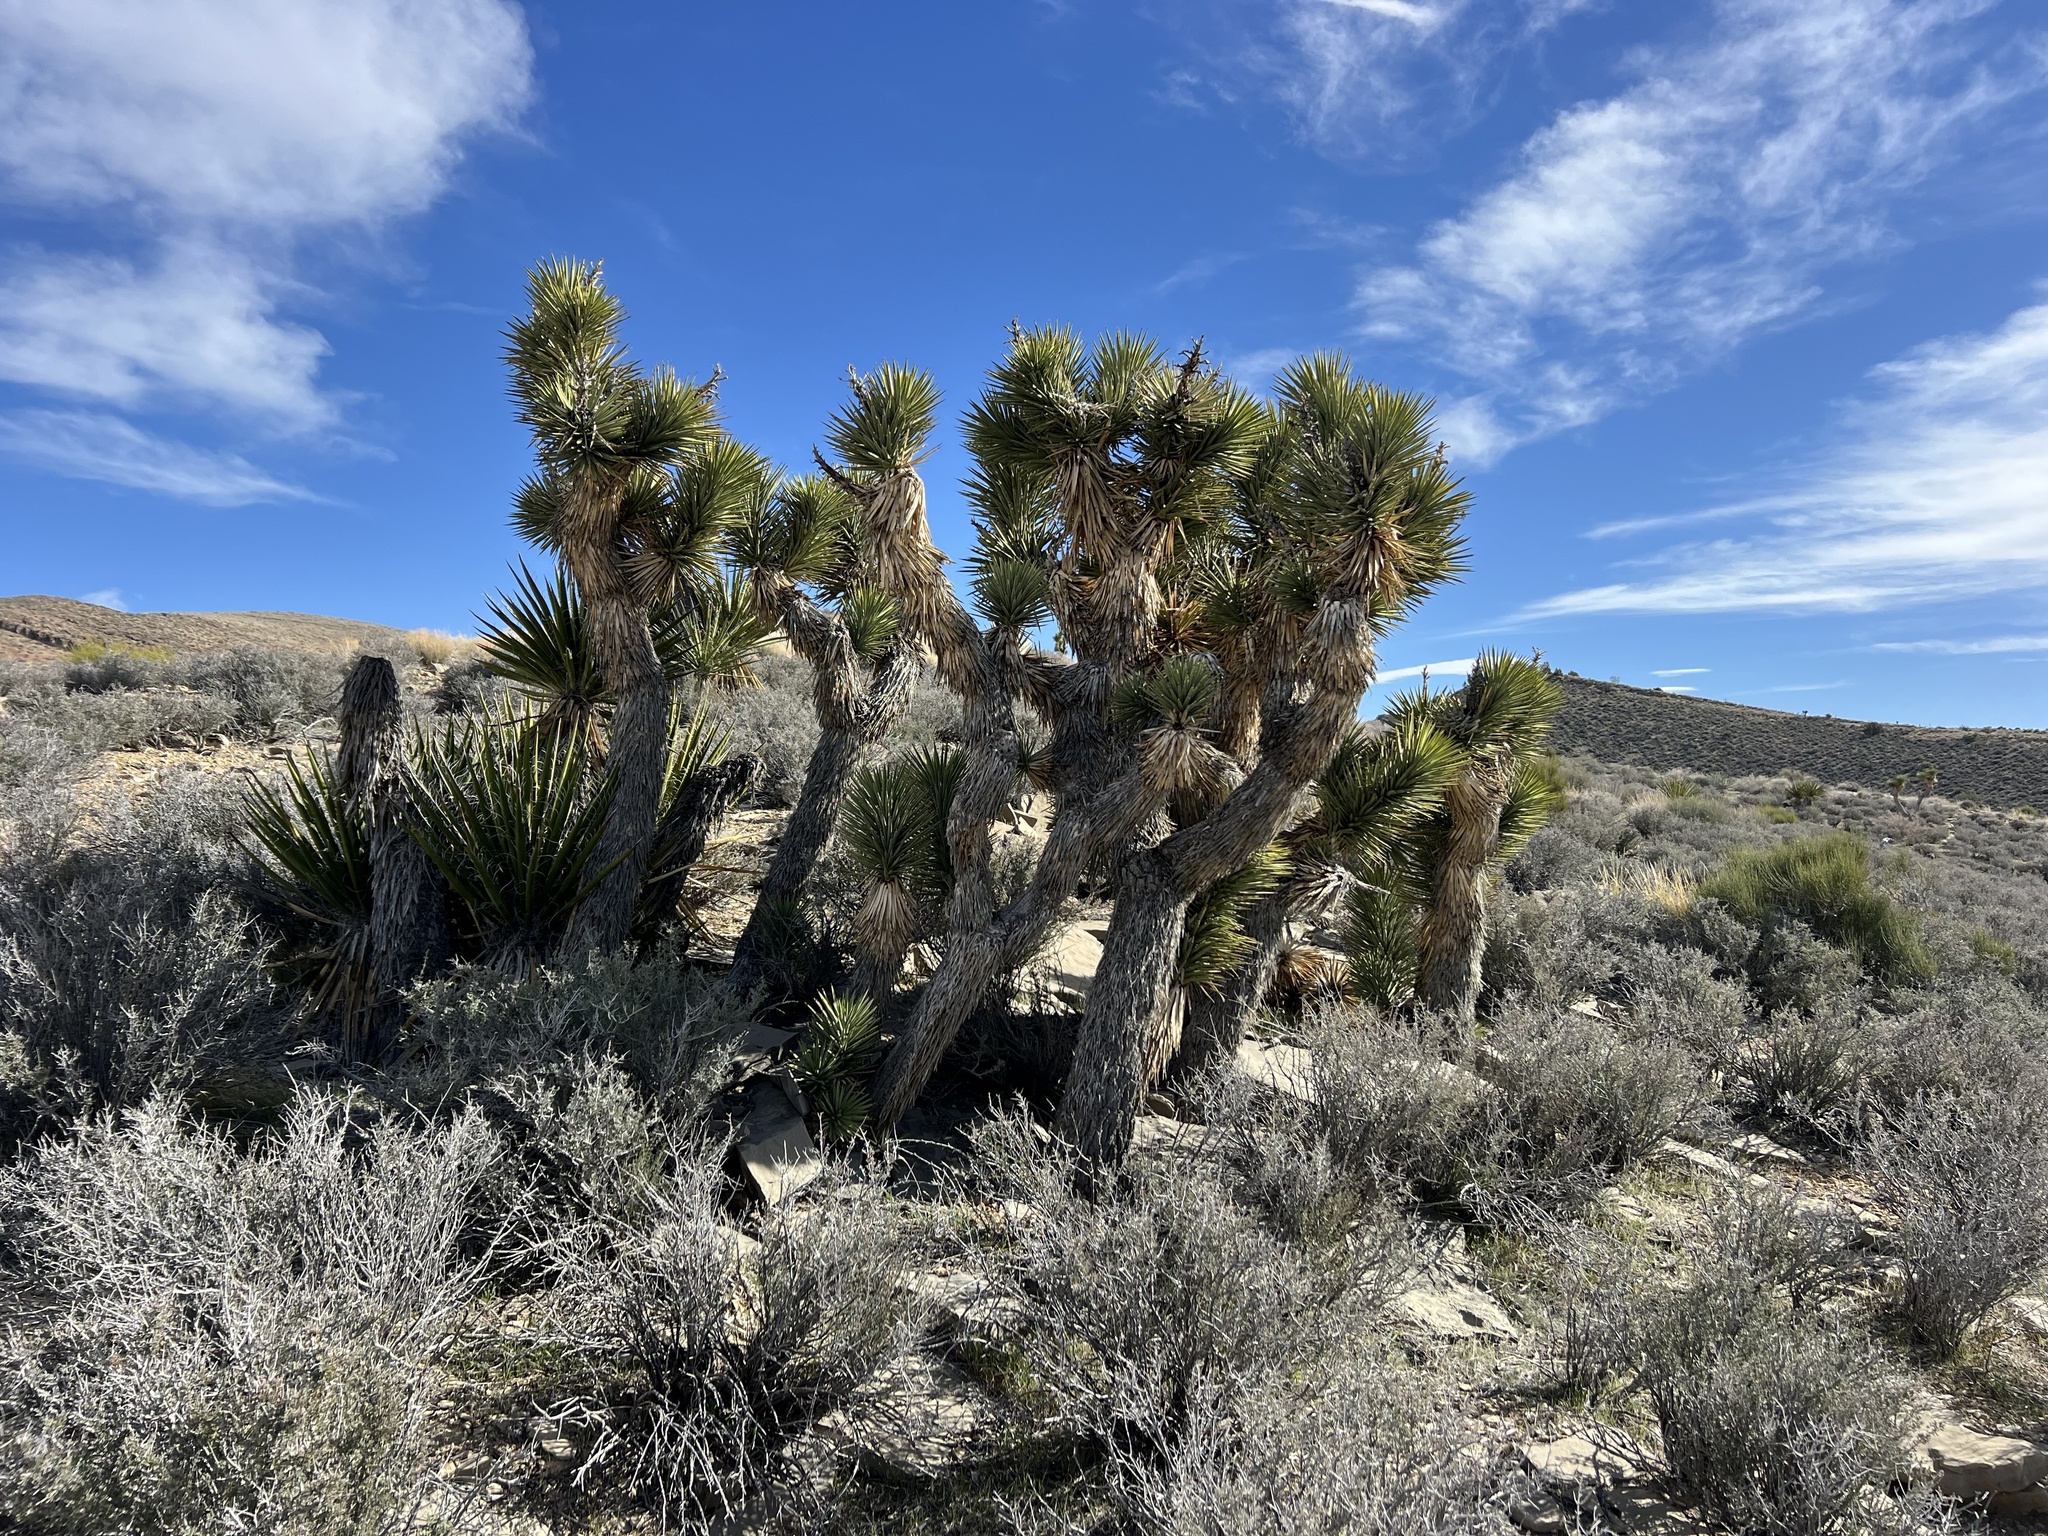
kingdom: Plantae
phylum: Tracheophyta
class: Liliopsida
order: Asparagales
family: Asparagaceae
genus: Yucca
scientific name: Yucca brevifolia
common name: Joshua tree
